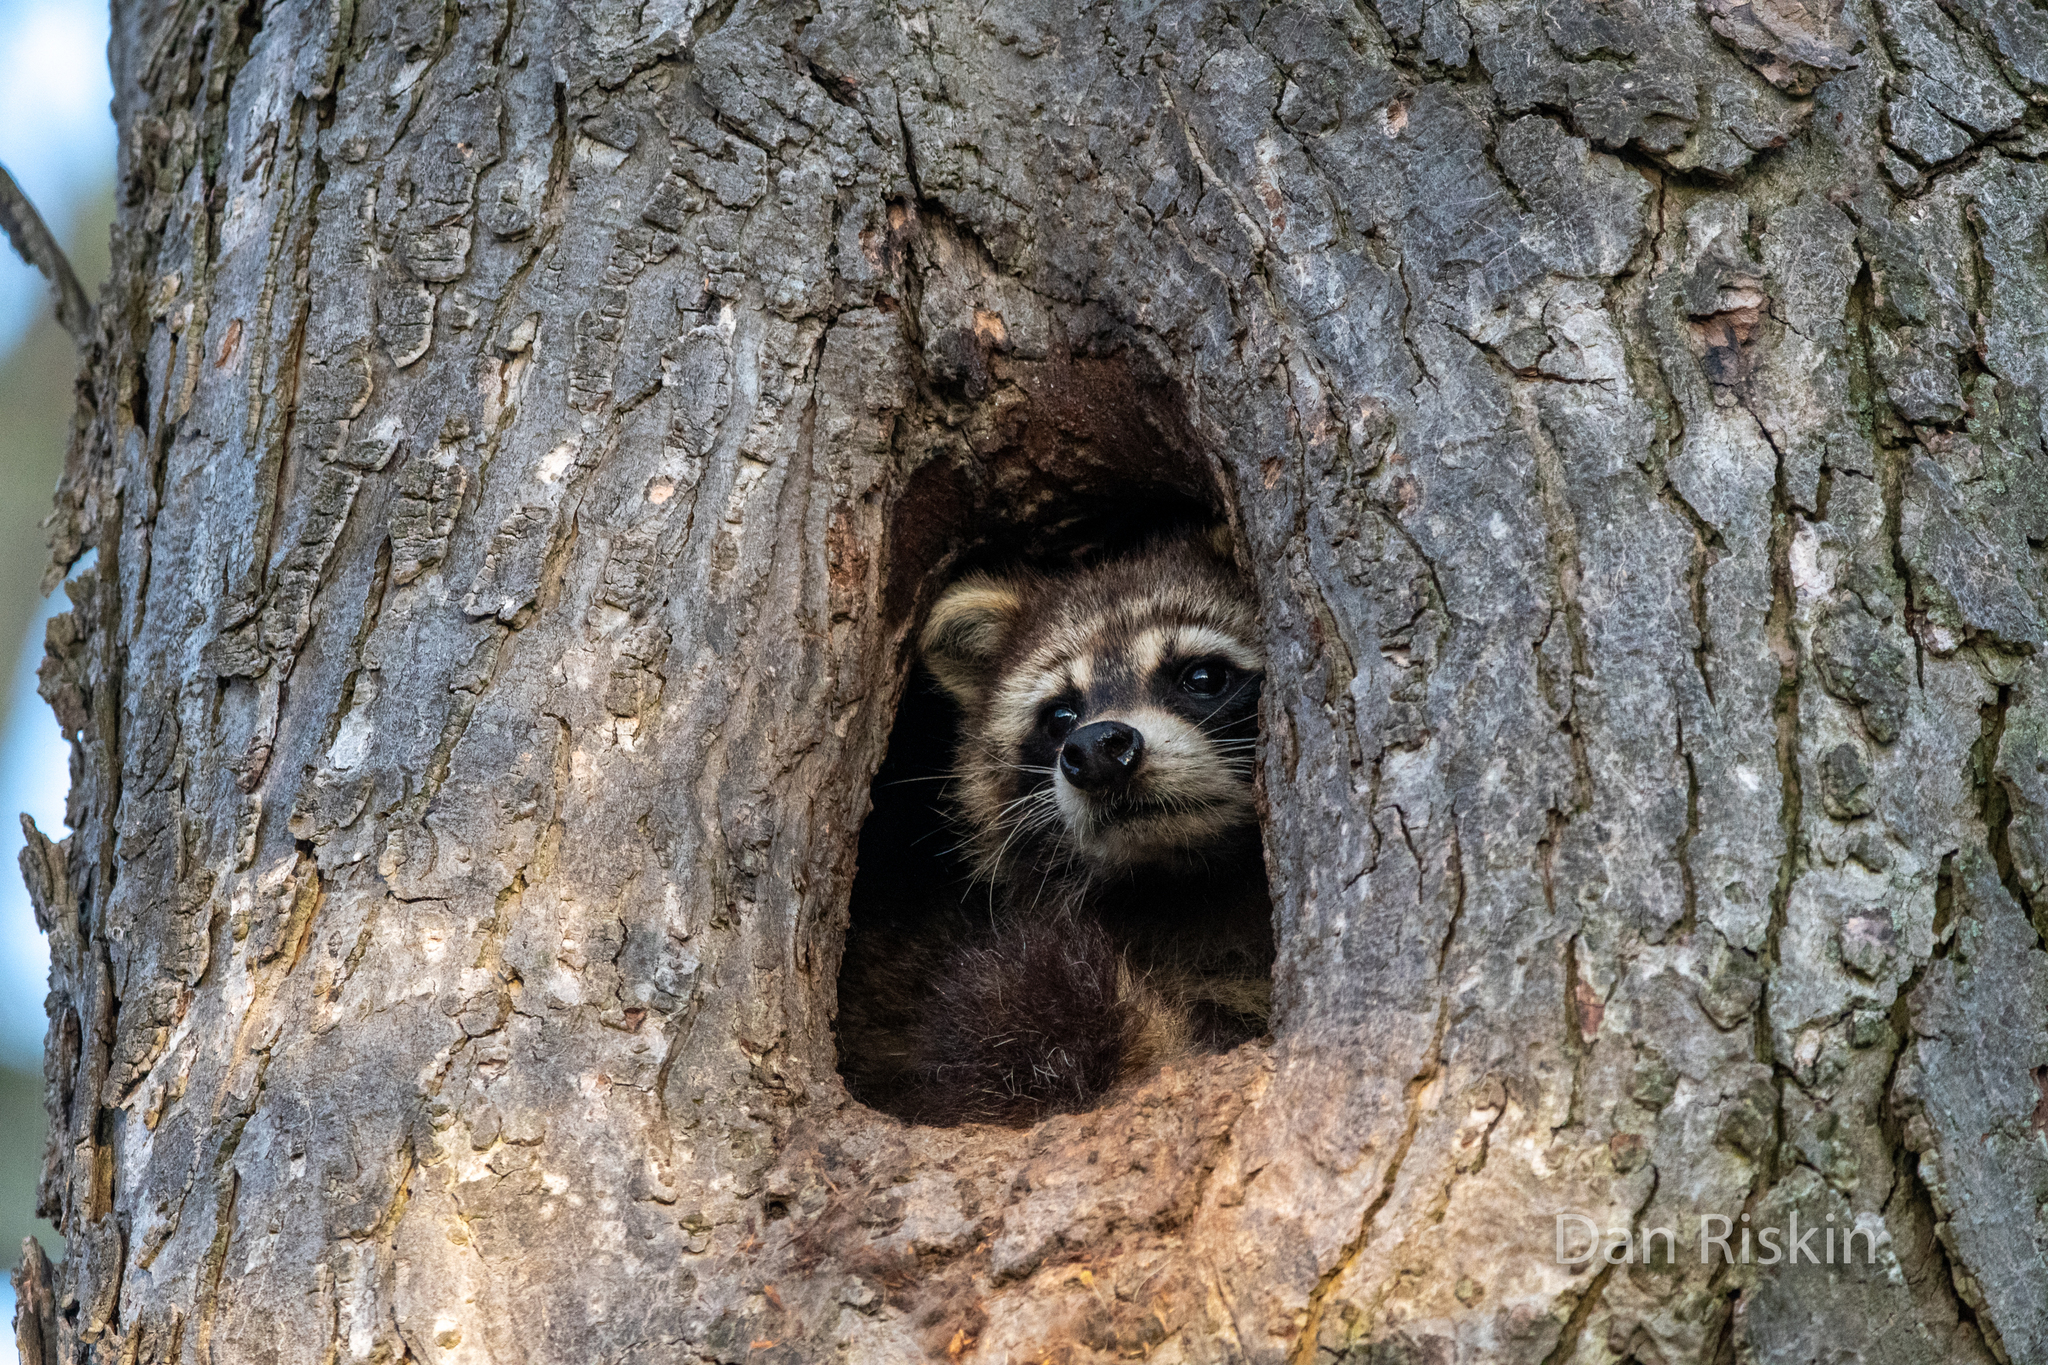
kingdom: Animalia
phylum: Chordata
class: Mammalia
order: Carnivora
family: Procyonidae
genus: Procyon
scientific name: Procyon lotor
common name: Raccoon
